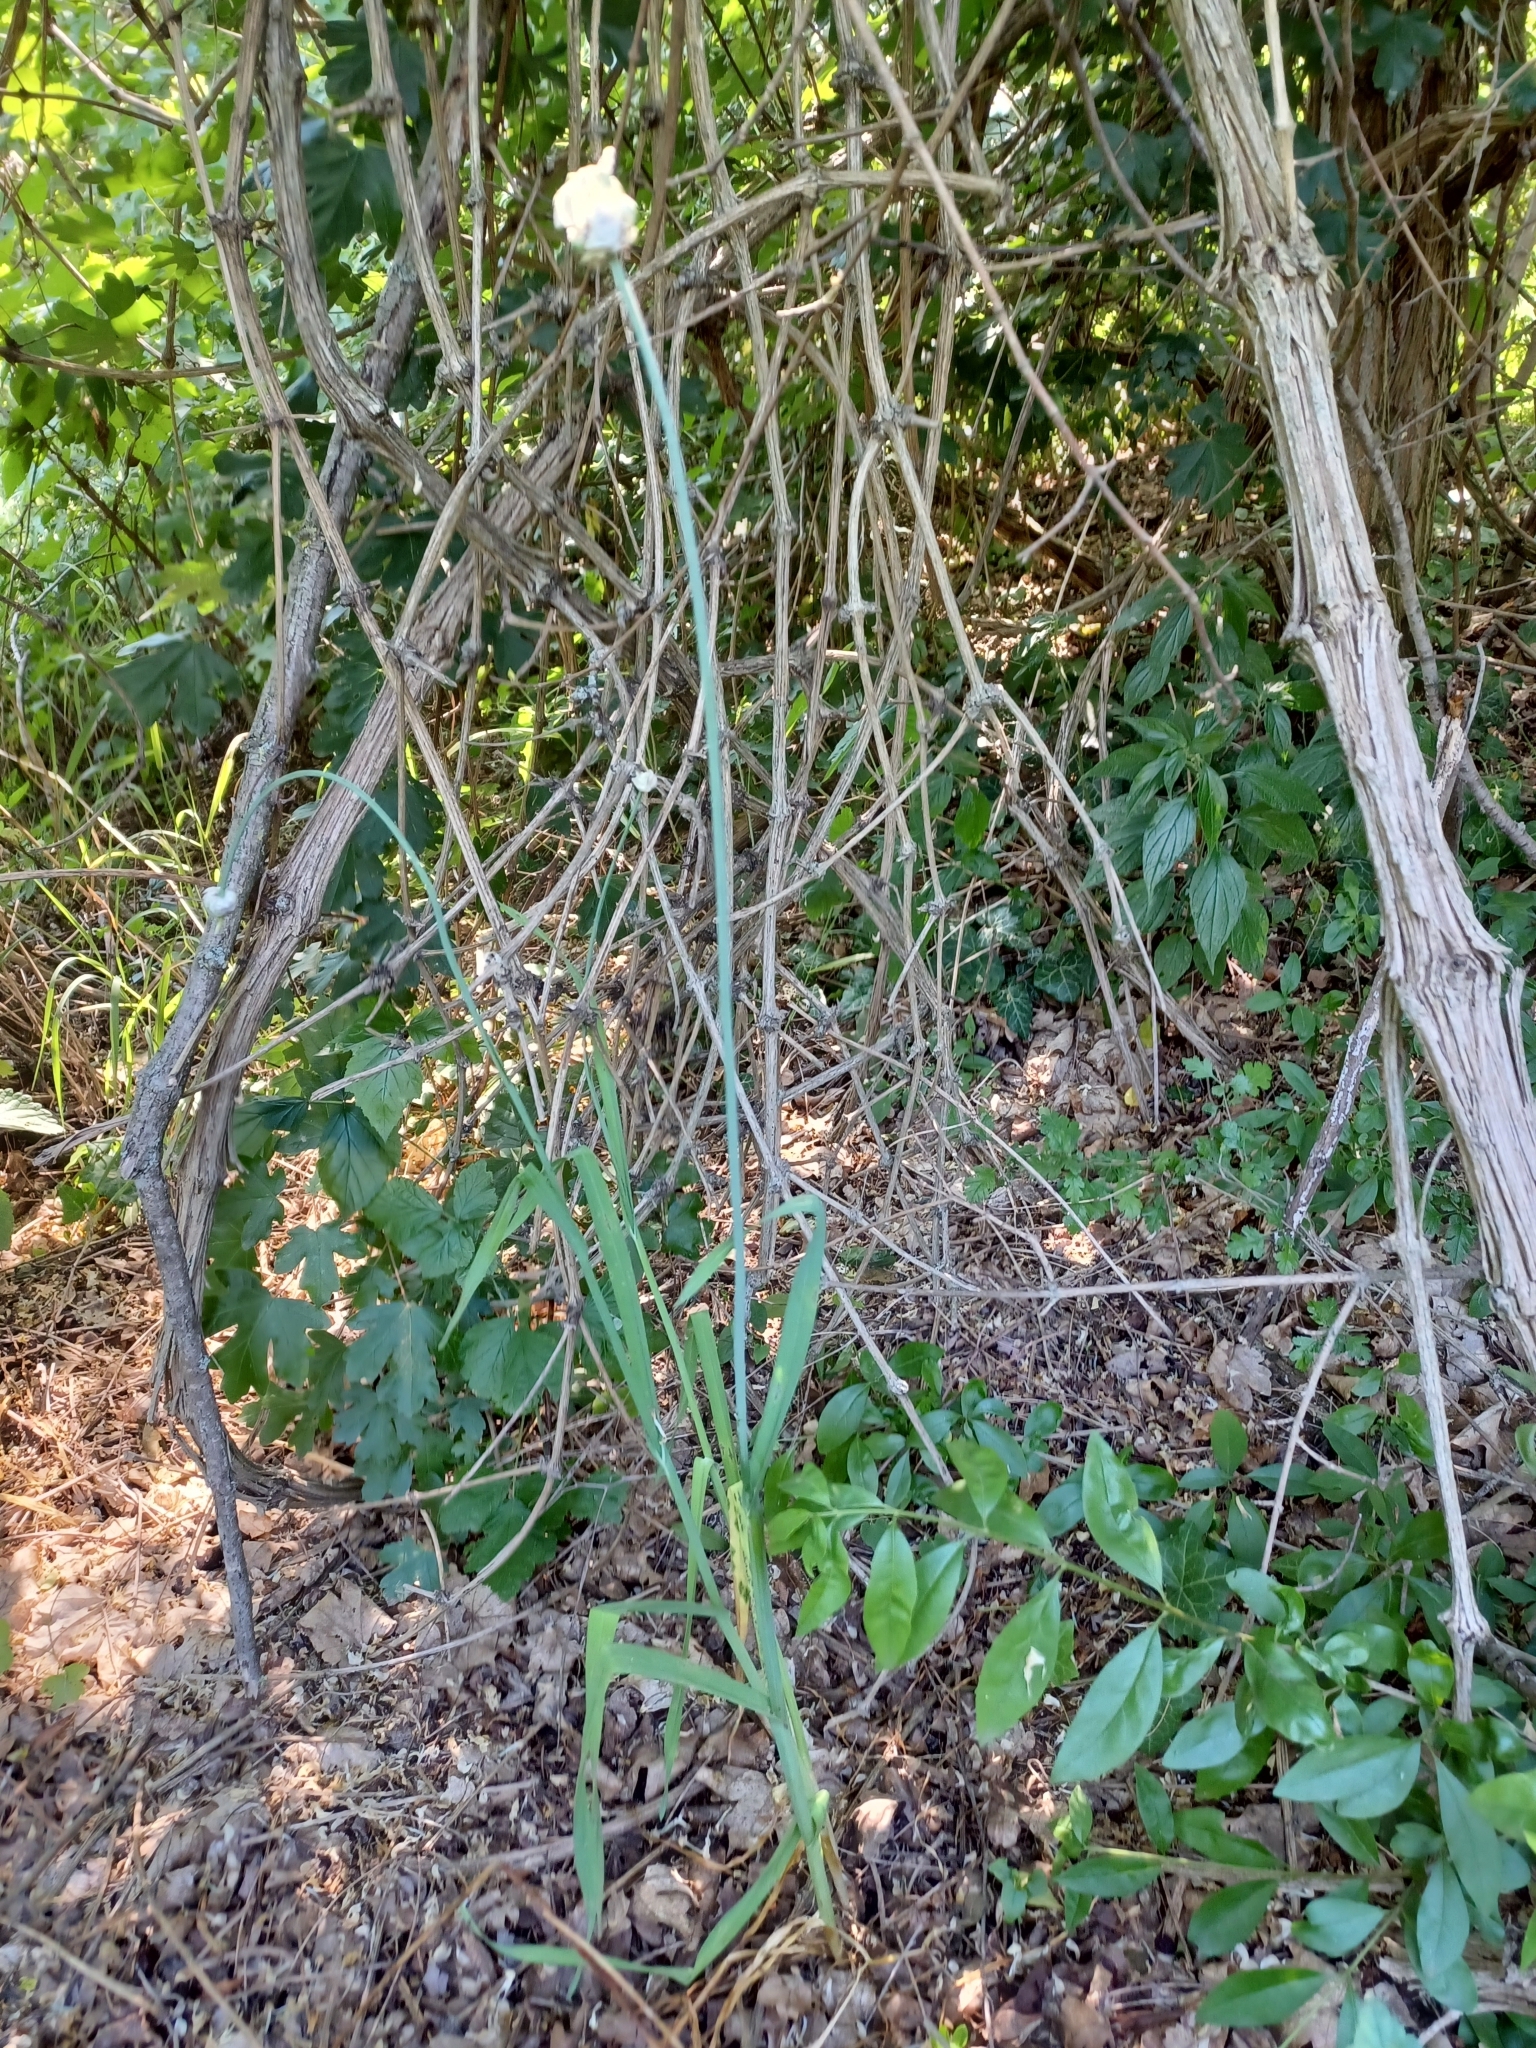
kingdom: Plantae
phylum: Tracheophyta
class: Liliopsida
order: Asparagales
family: Amaryllidaceae
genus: Allium
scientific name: Allium scorodoprasum
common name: Sand leek
